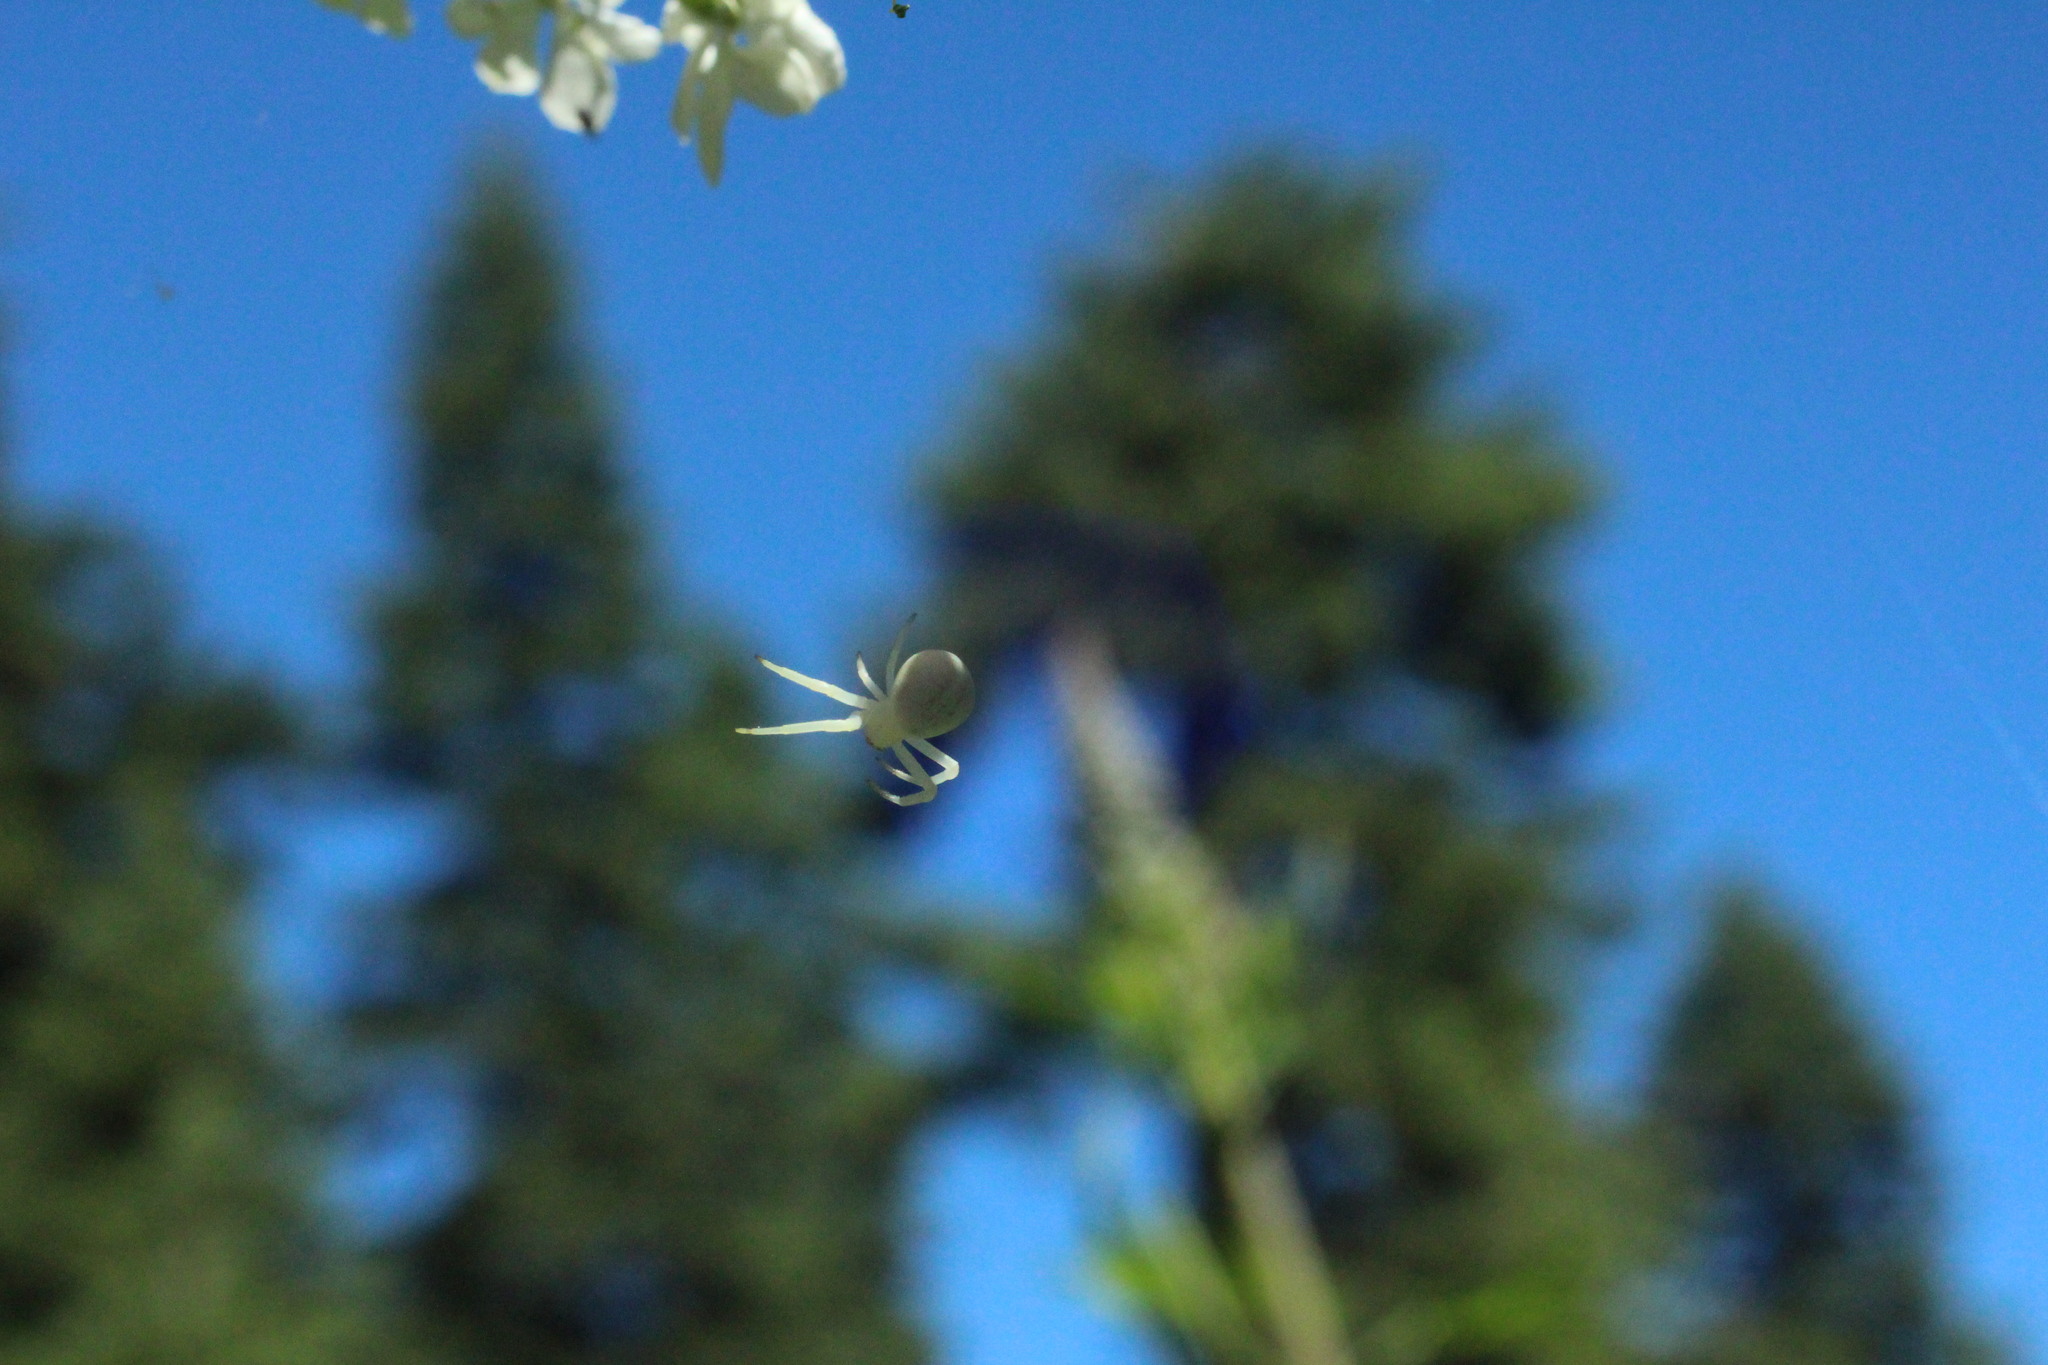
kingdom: Animalia
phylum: Arthropoda
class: Arachnida
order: Araneae
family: Thomisidae
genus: Misumena
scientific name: Misumena vatia
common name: Goldenrod crab spider
